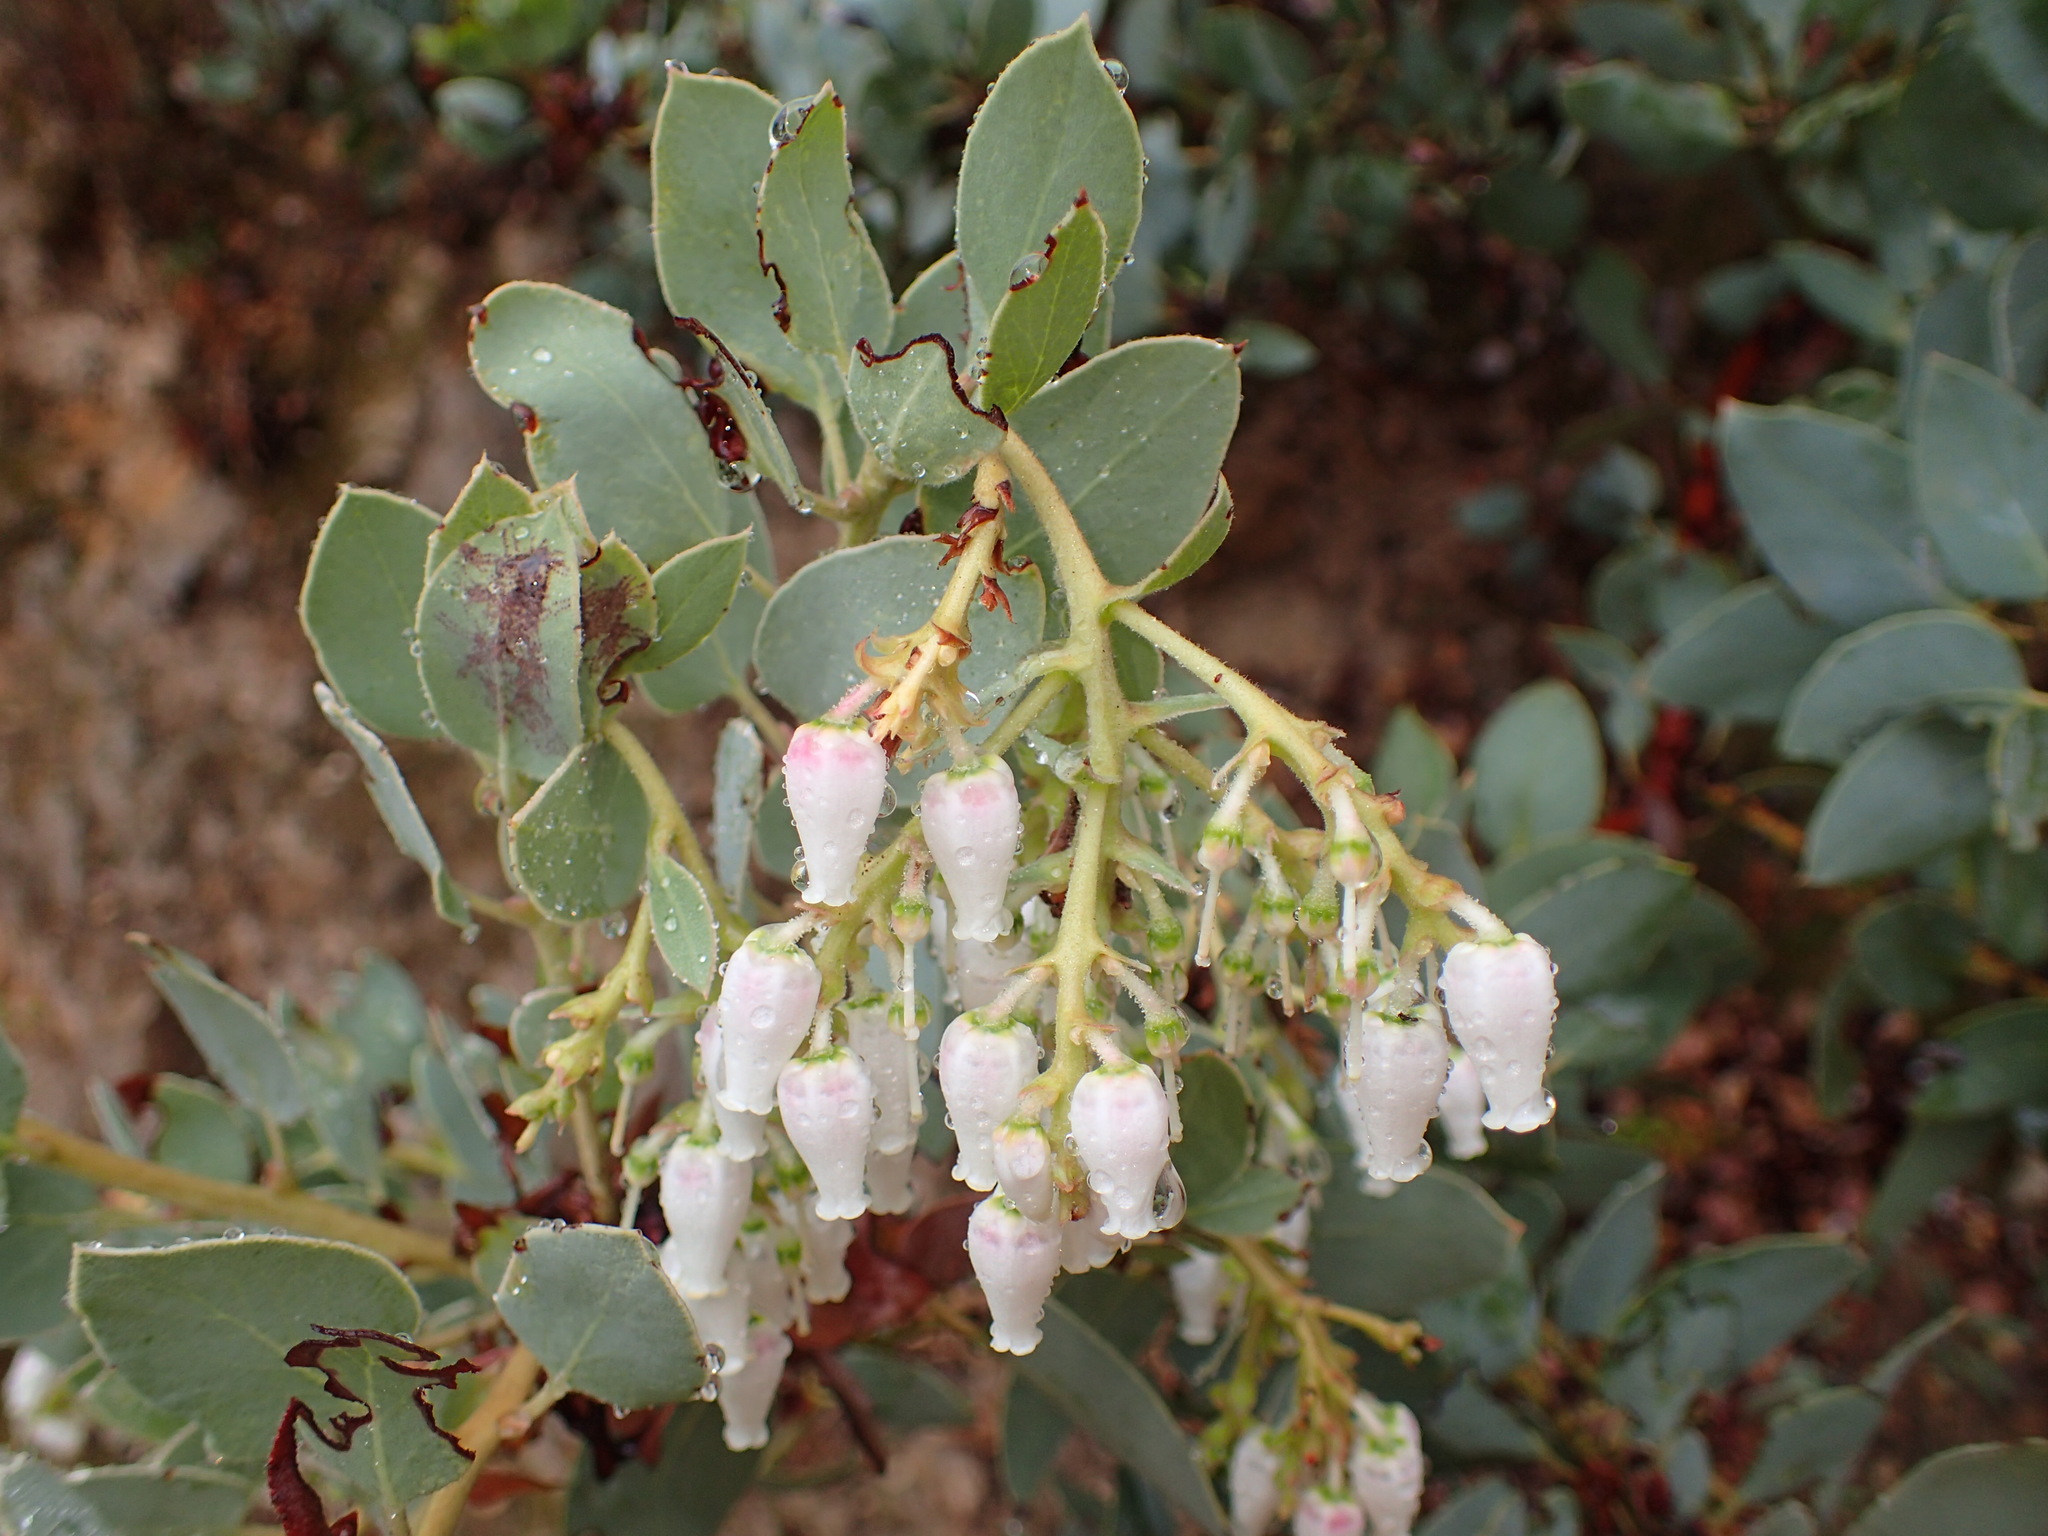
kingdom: Plantae
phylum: Tracheophyta
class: Magnoliopsida
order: Ericales
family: Ericaceae
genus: Arctostaphylos
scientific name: Arctostaphylos glauca
